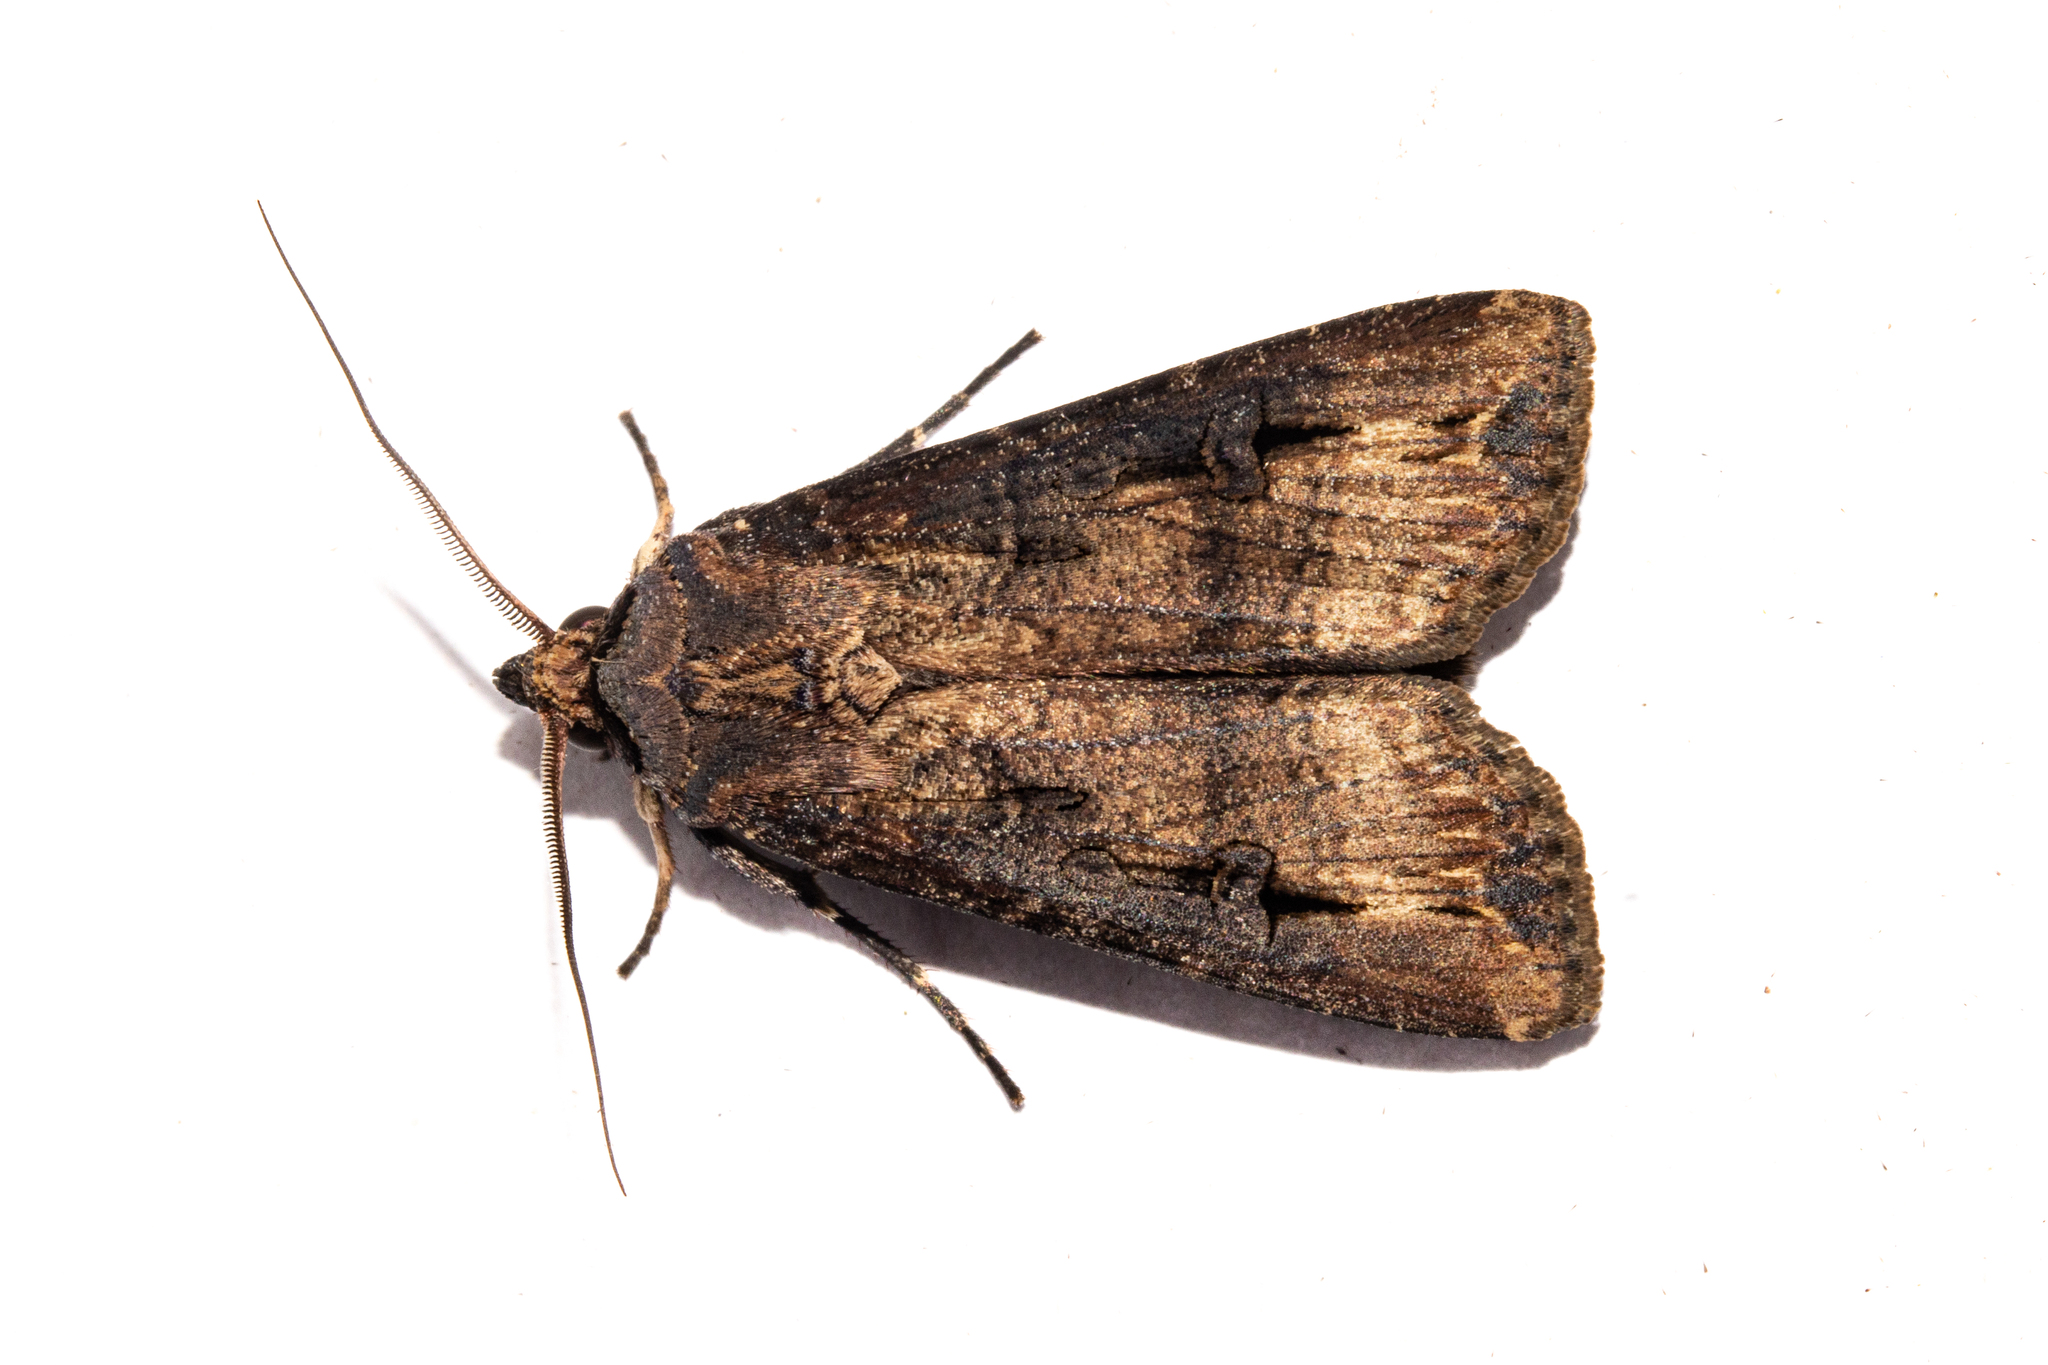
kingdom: Animalia
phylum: Arthropoda
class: Insecta
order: Lepidoptera
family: Noctuidae
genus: Agrotis
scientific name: Agrotis ipsilon
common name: Dark sword-grass
